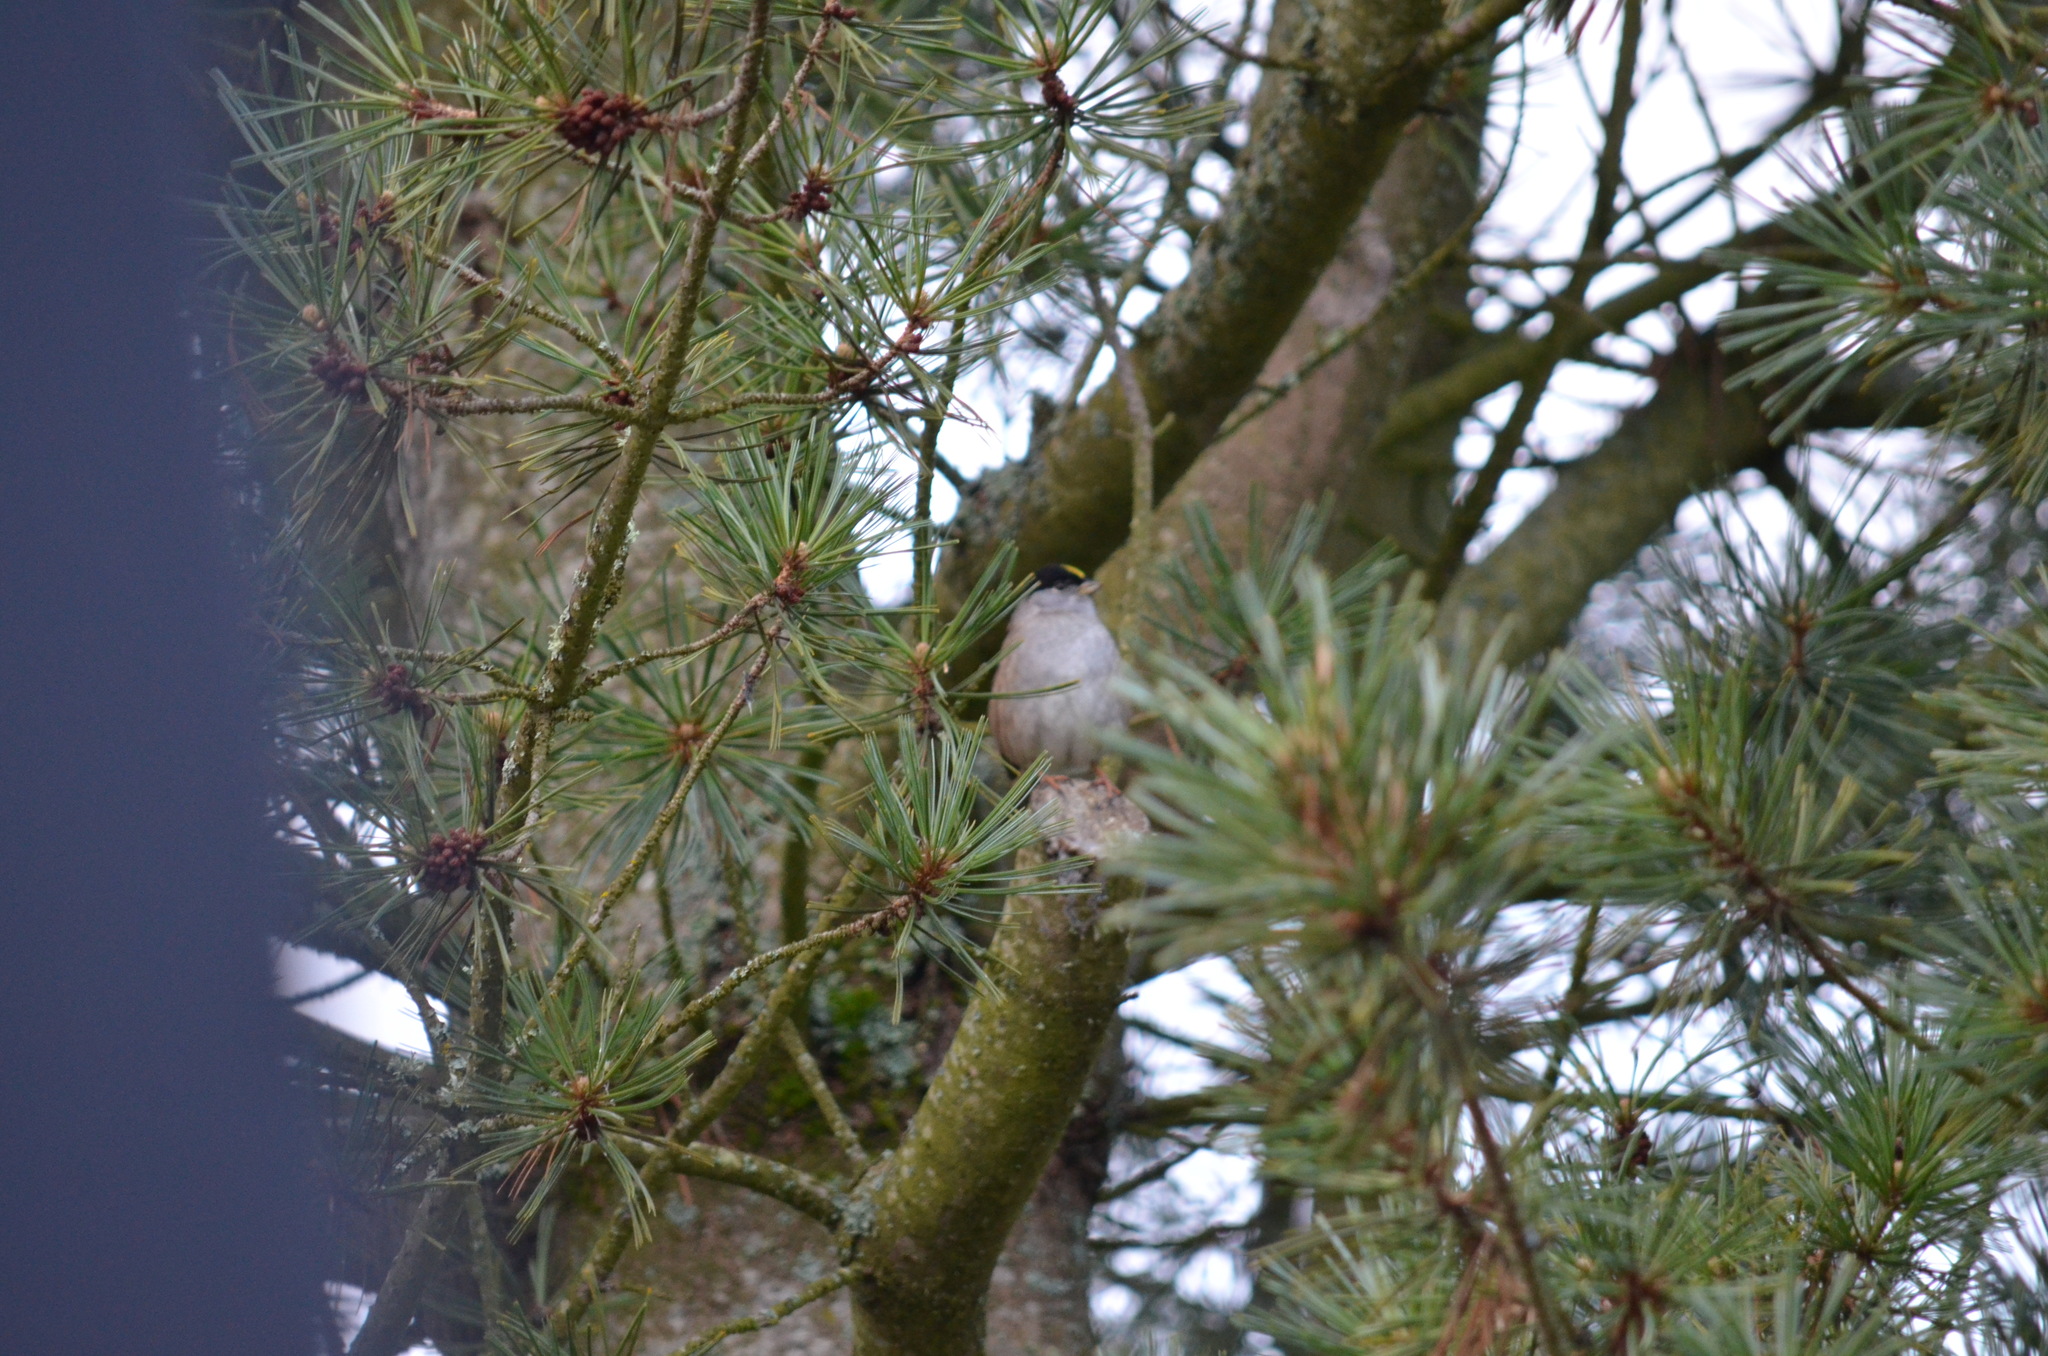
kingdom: Animalia
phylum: Chordata
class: Aves
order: Passeriformes
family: Passerellidae
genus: Zonotrichia
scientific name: Zonotrichia atricapilla
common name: Golden-crowned sparrow
